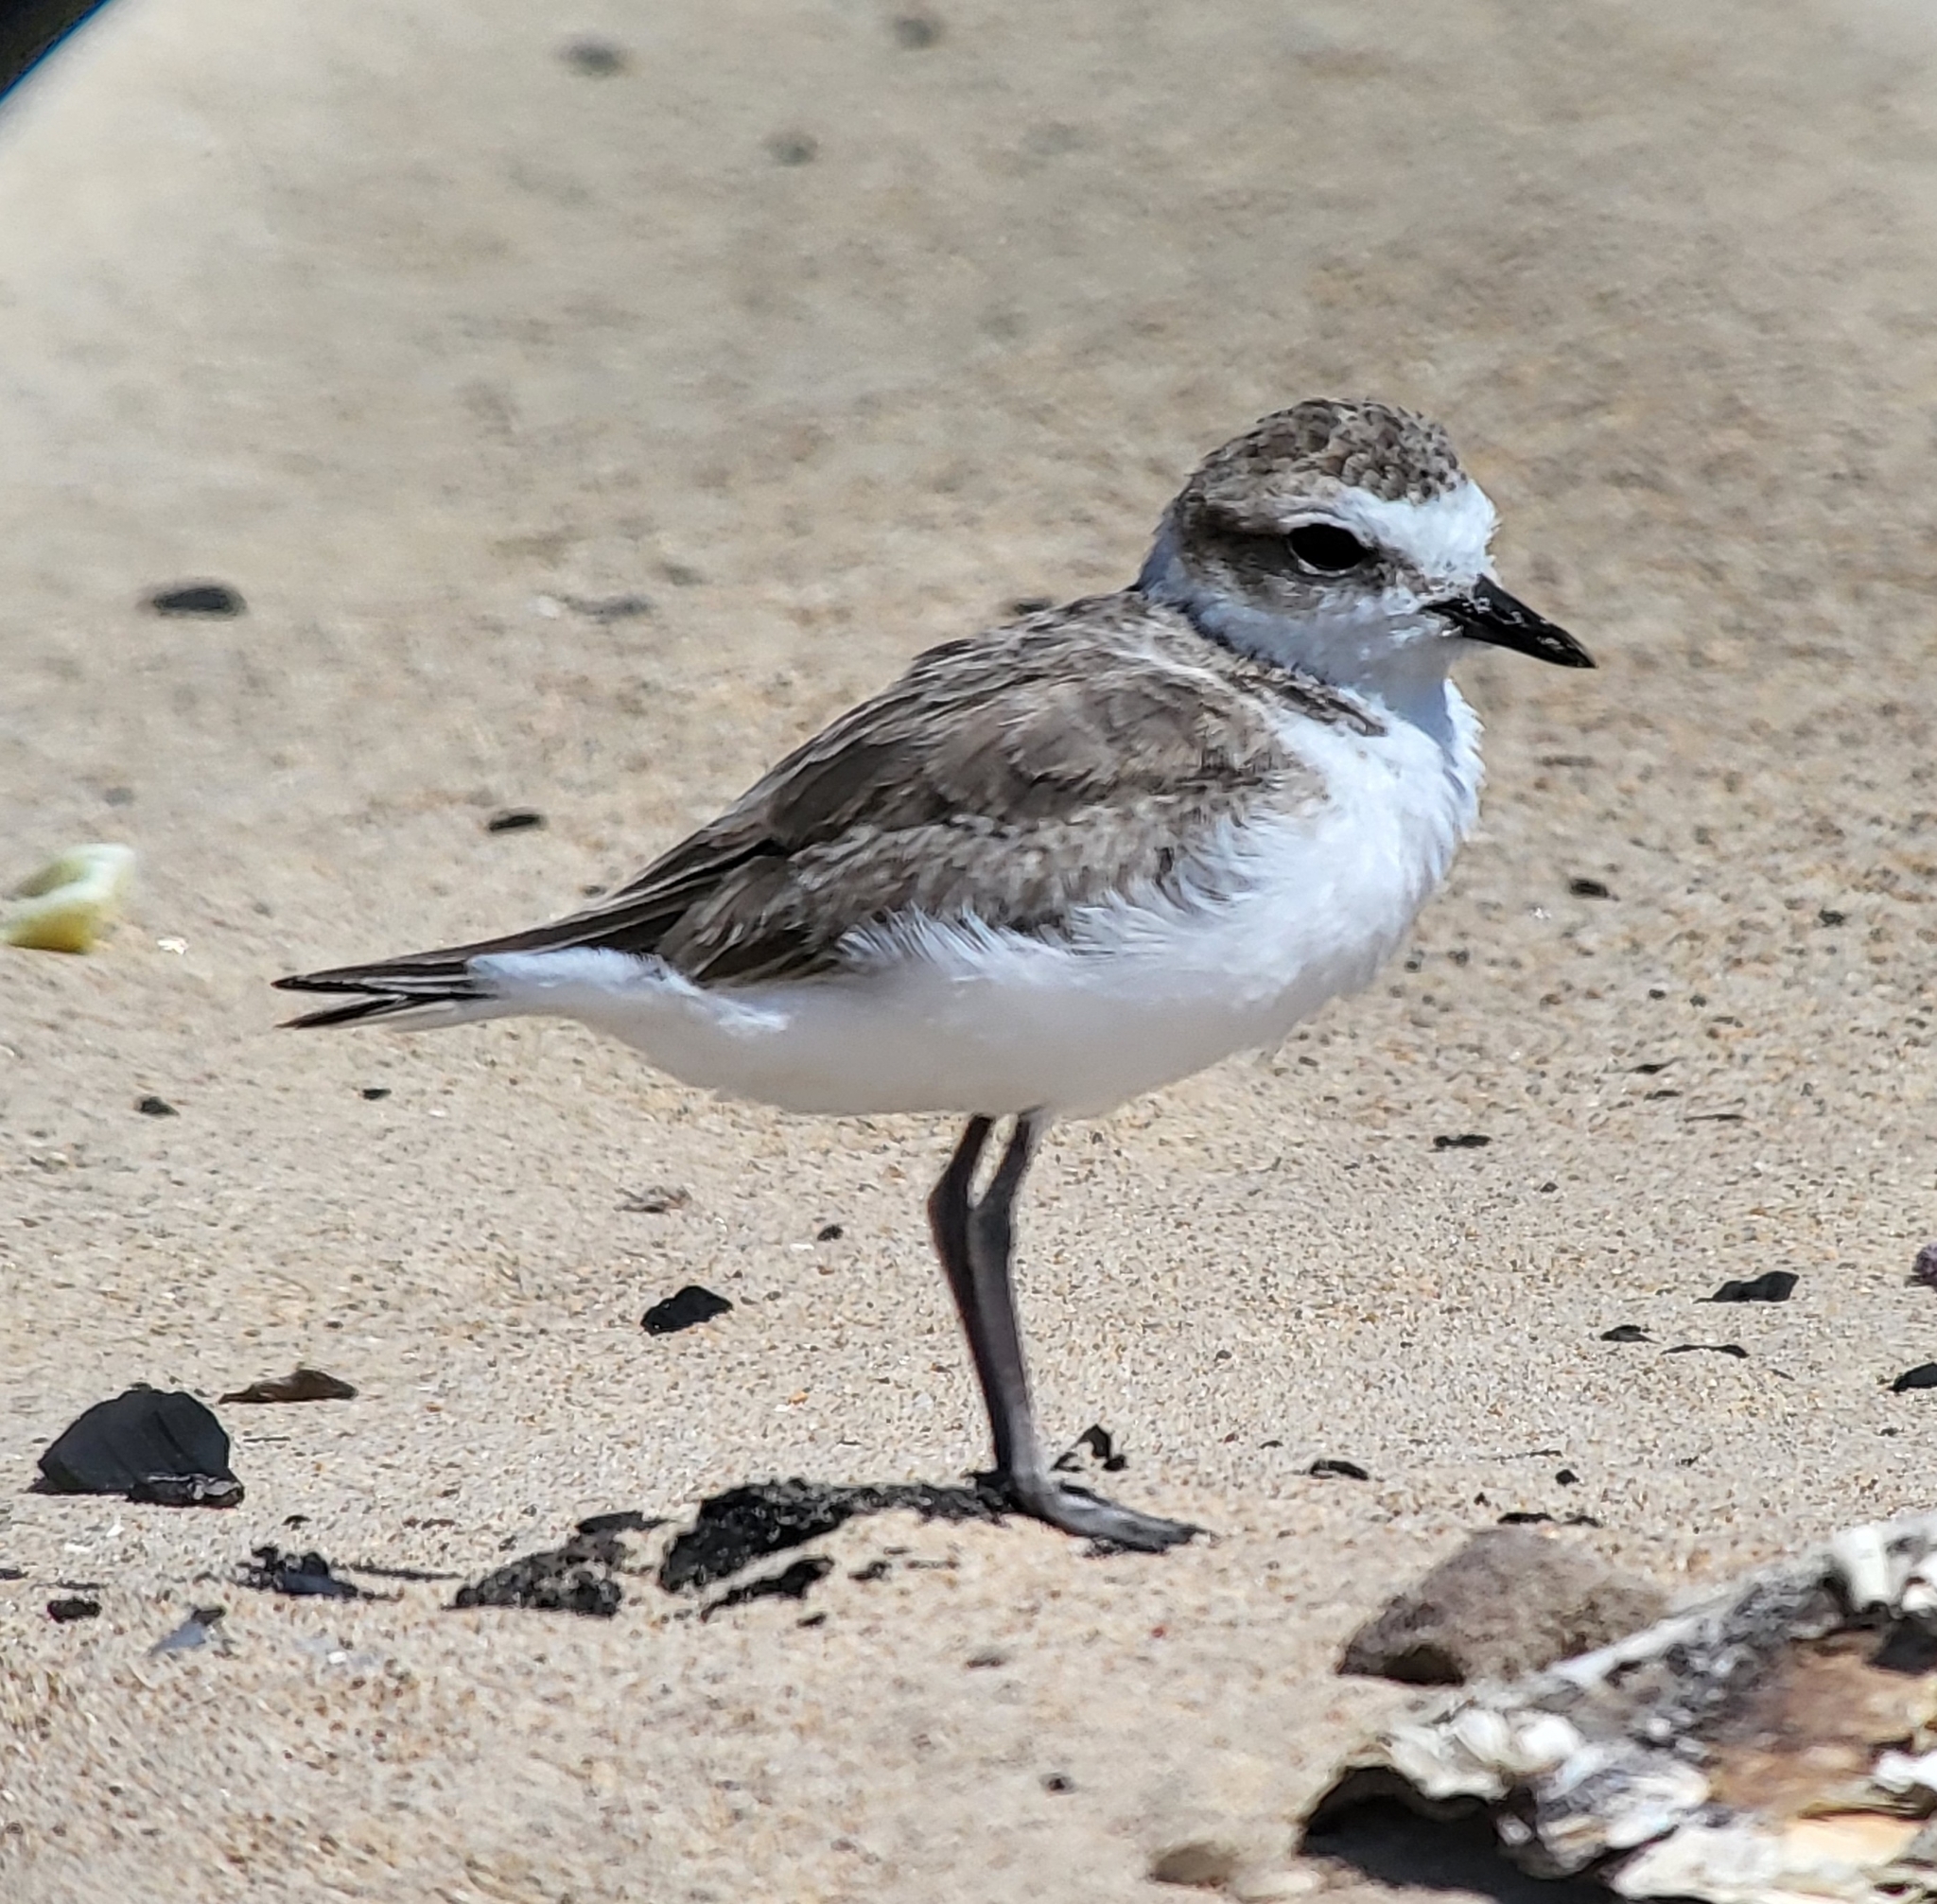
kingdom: Animalia
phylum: Chordata
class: Aves
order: Charadriiformes
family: Charadriidae
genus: Anarhynchus
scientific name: Anarhynchus
